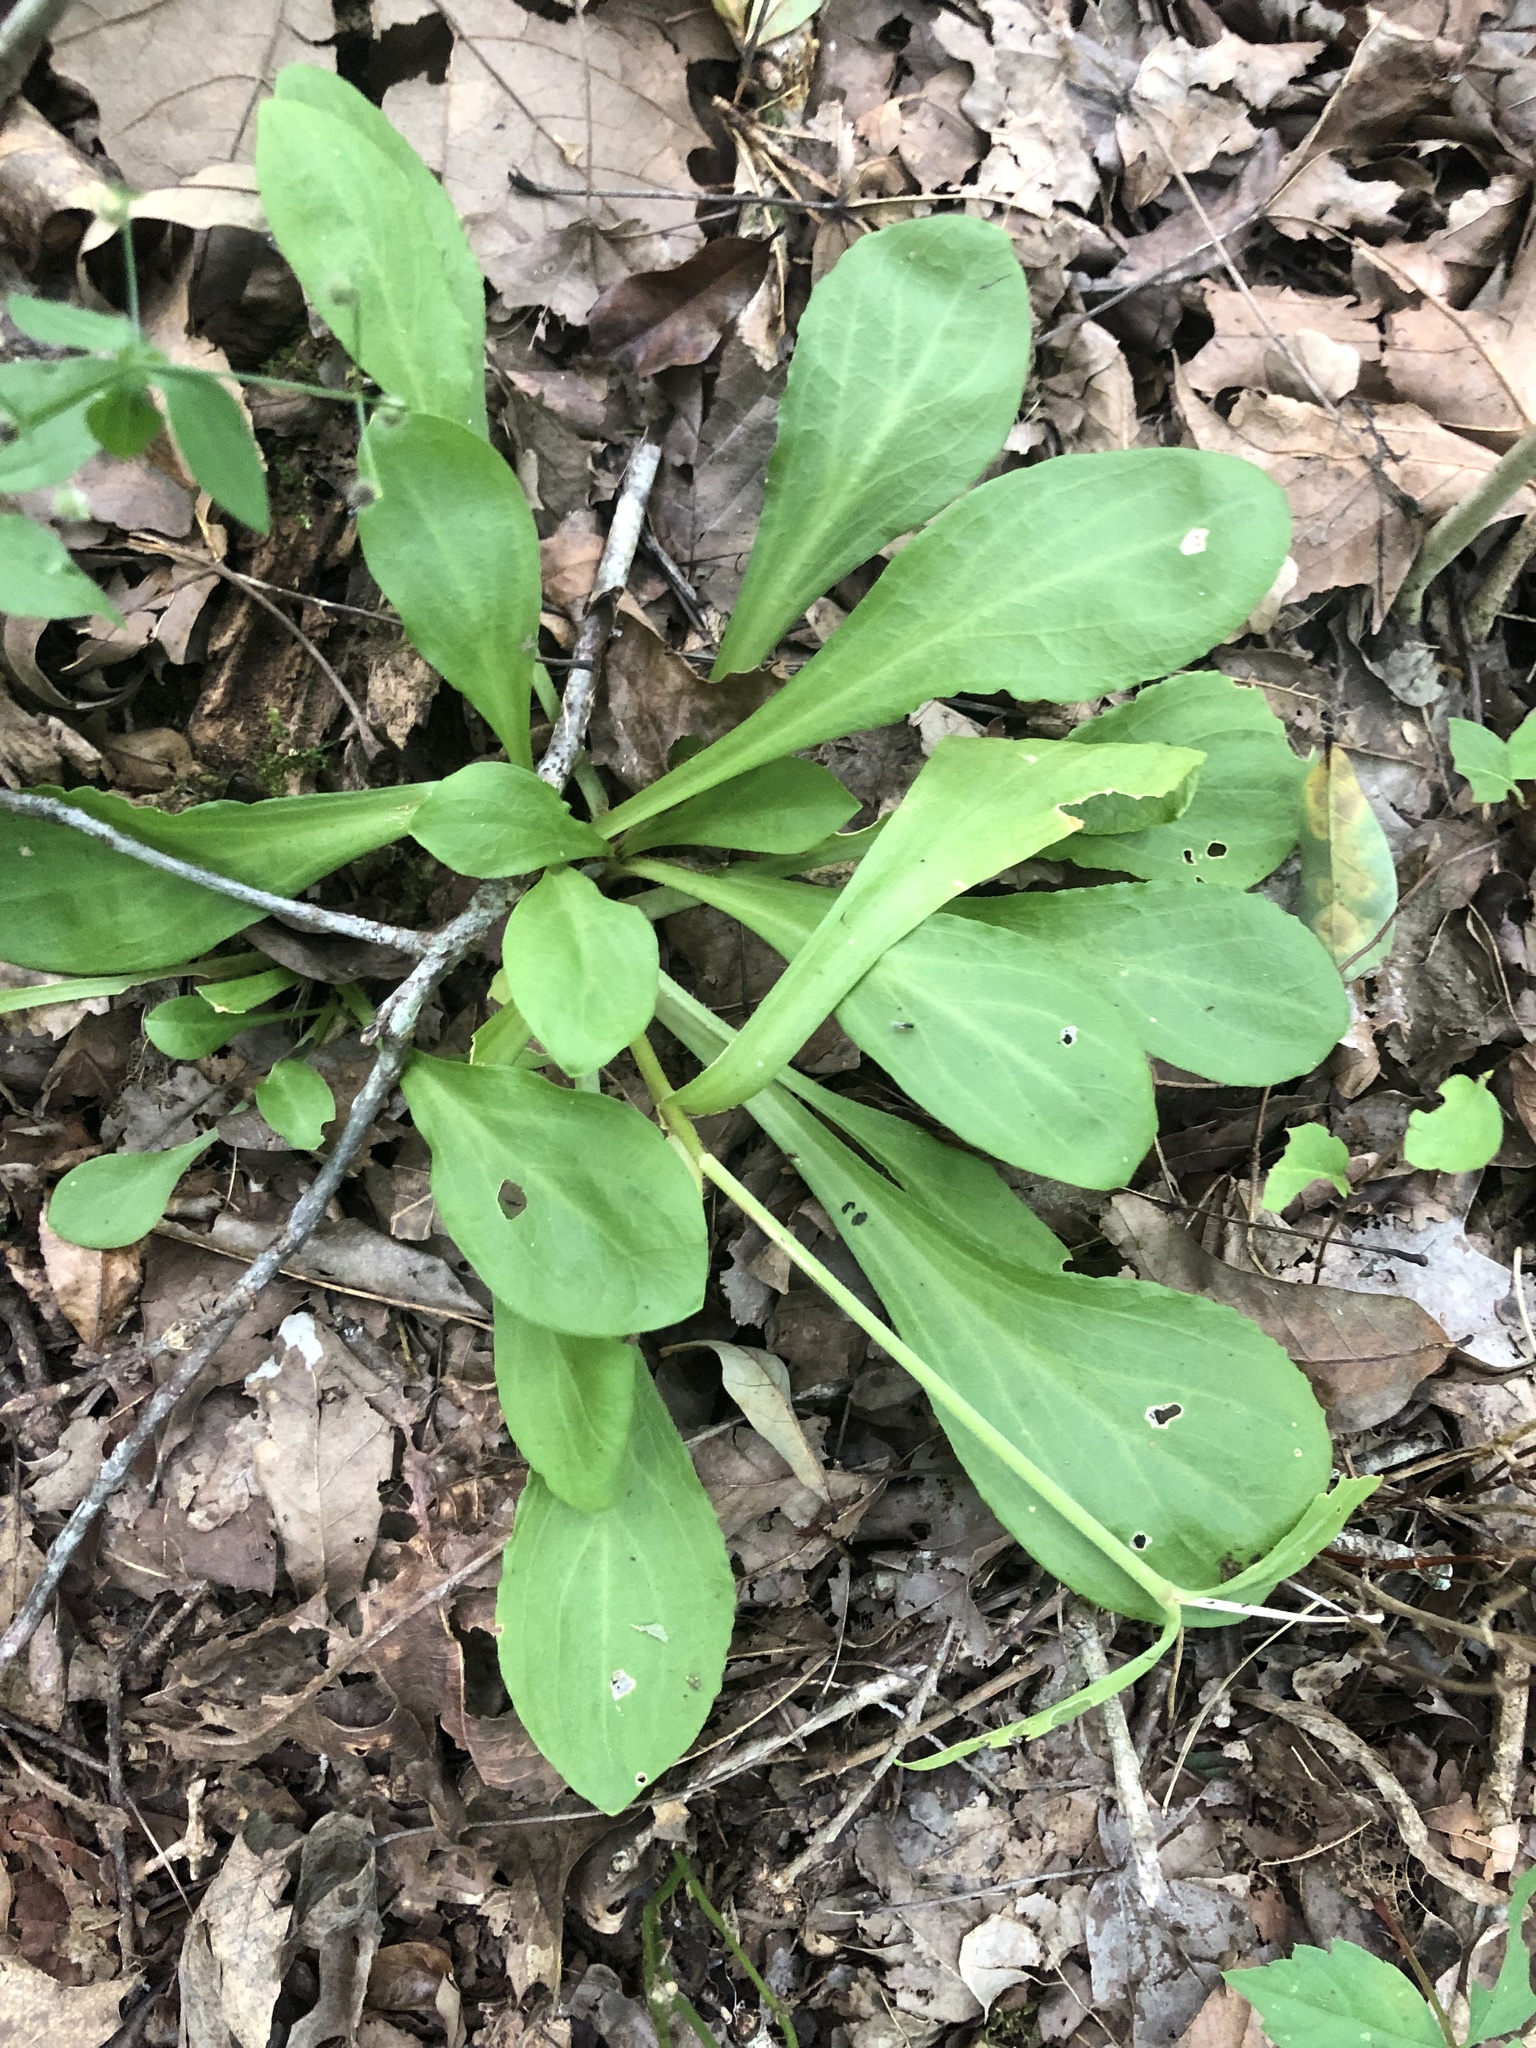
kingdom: Plantae
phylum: Tracheophyta
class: Magnoliopsida
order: Caryophyllales
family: Caryophyllaceae
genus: Silene
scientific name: Silene virginica
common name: Fire-pink
